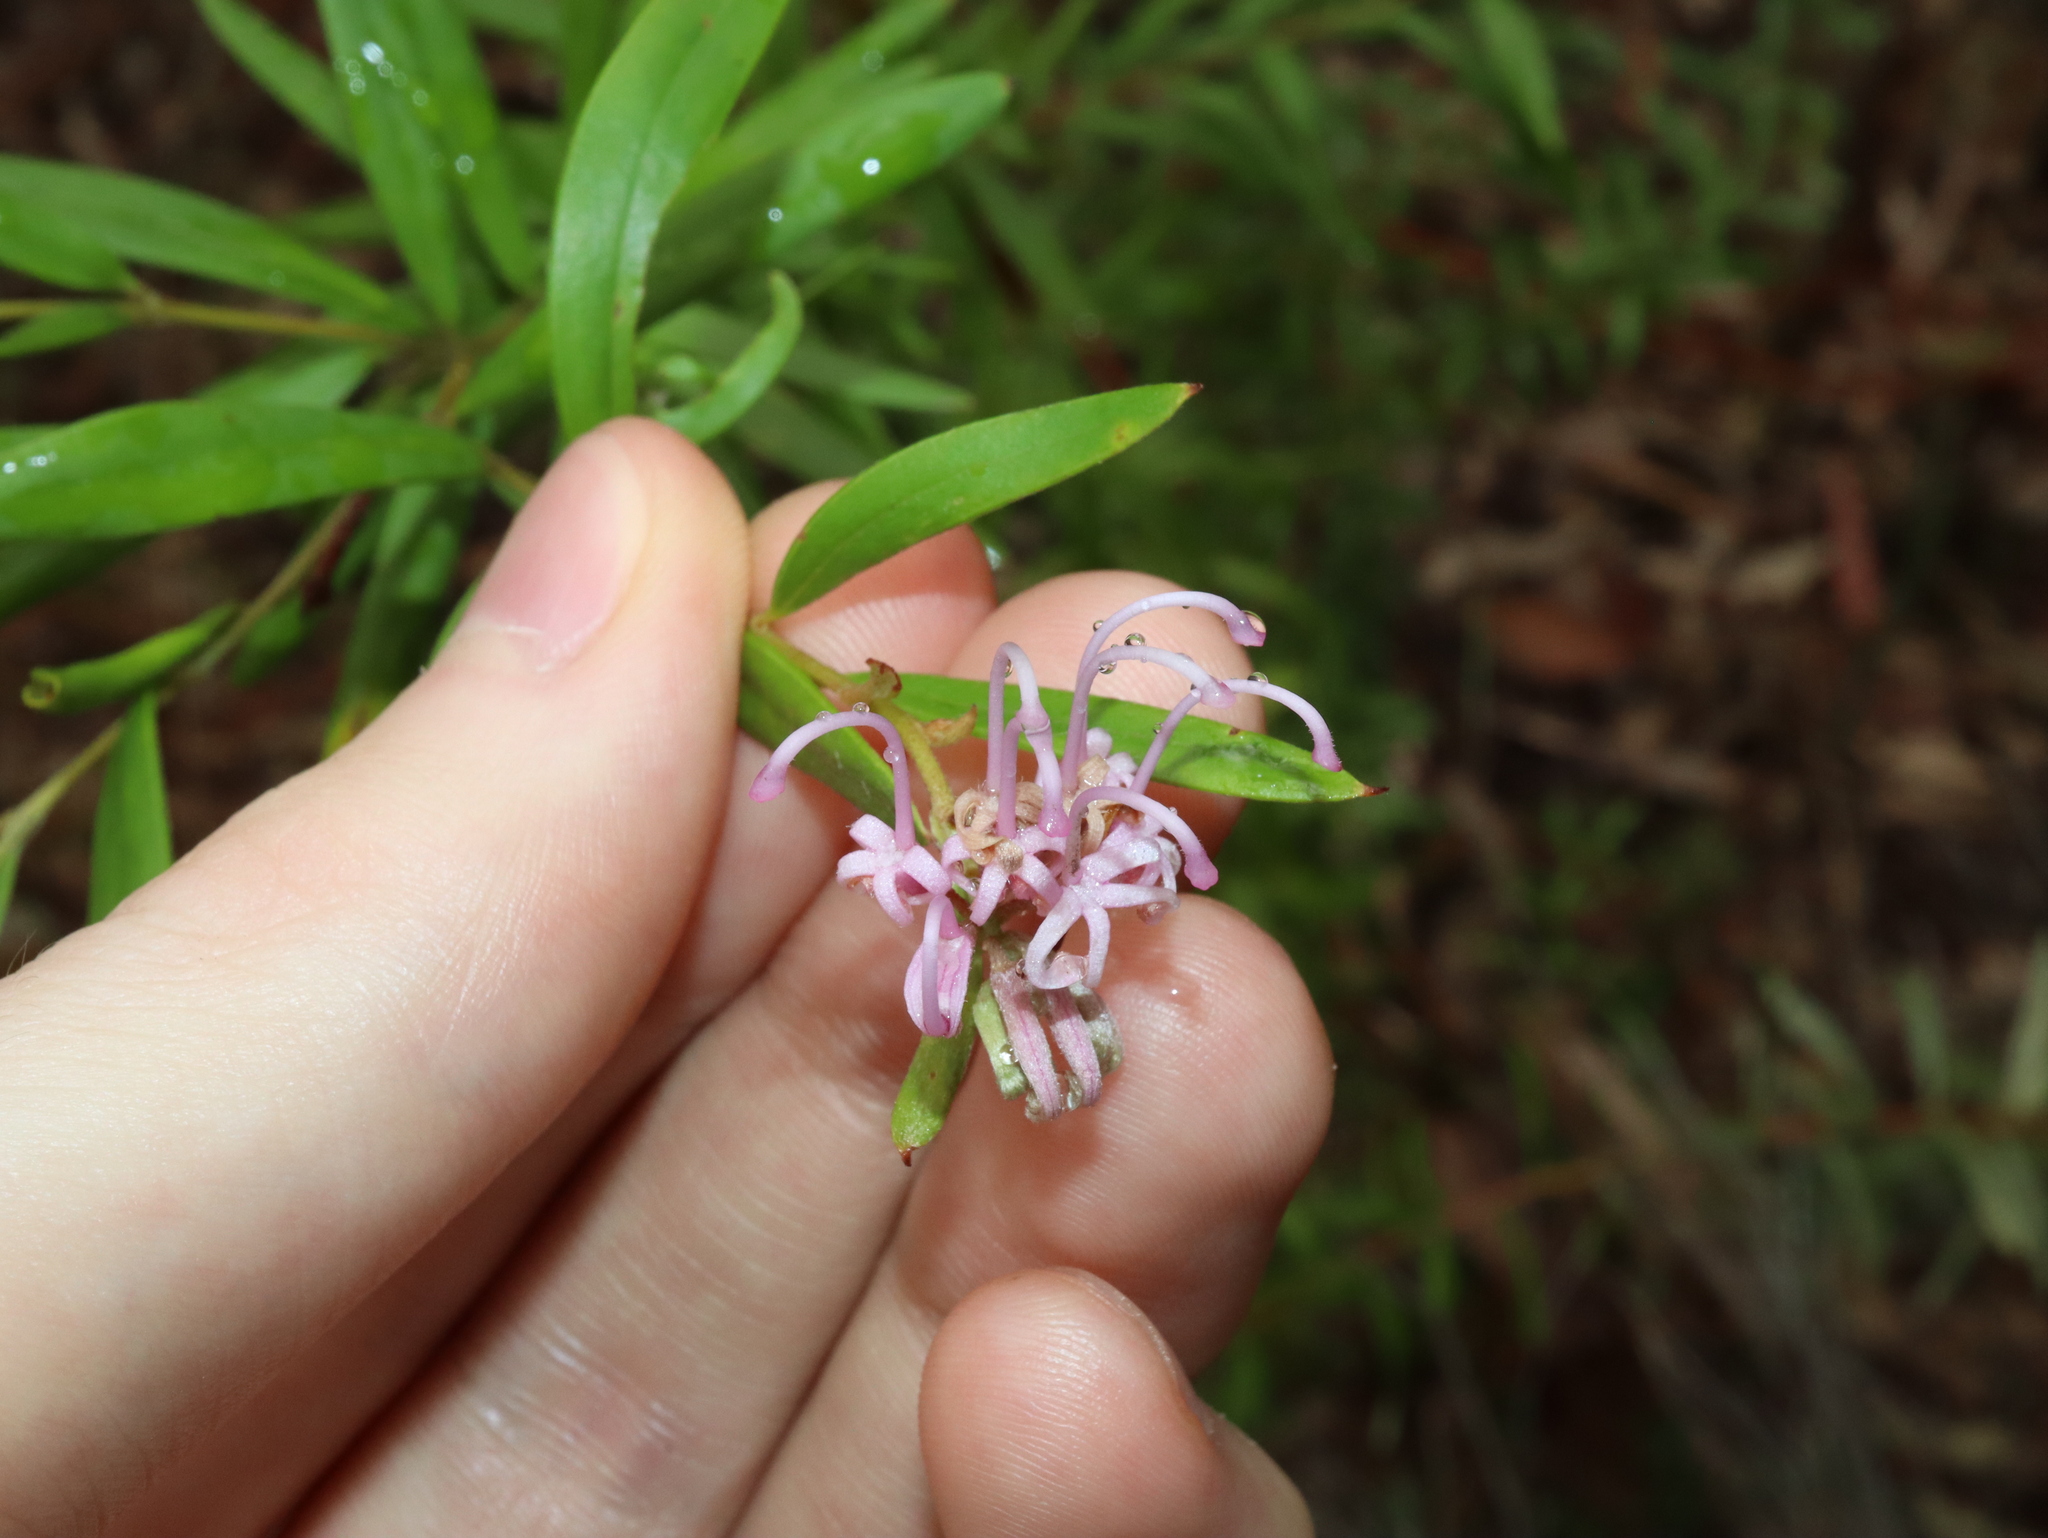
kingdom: Plantae
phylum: Tracheophyta
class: Magnoliopsida
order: Proteales
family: Proteaceae
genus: Grevillea
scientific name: Grevillea sericea
